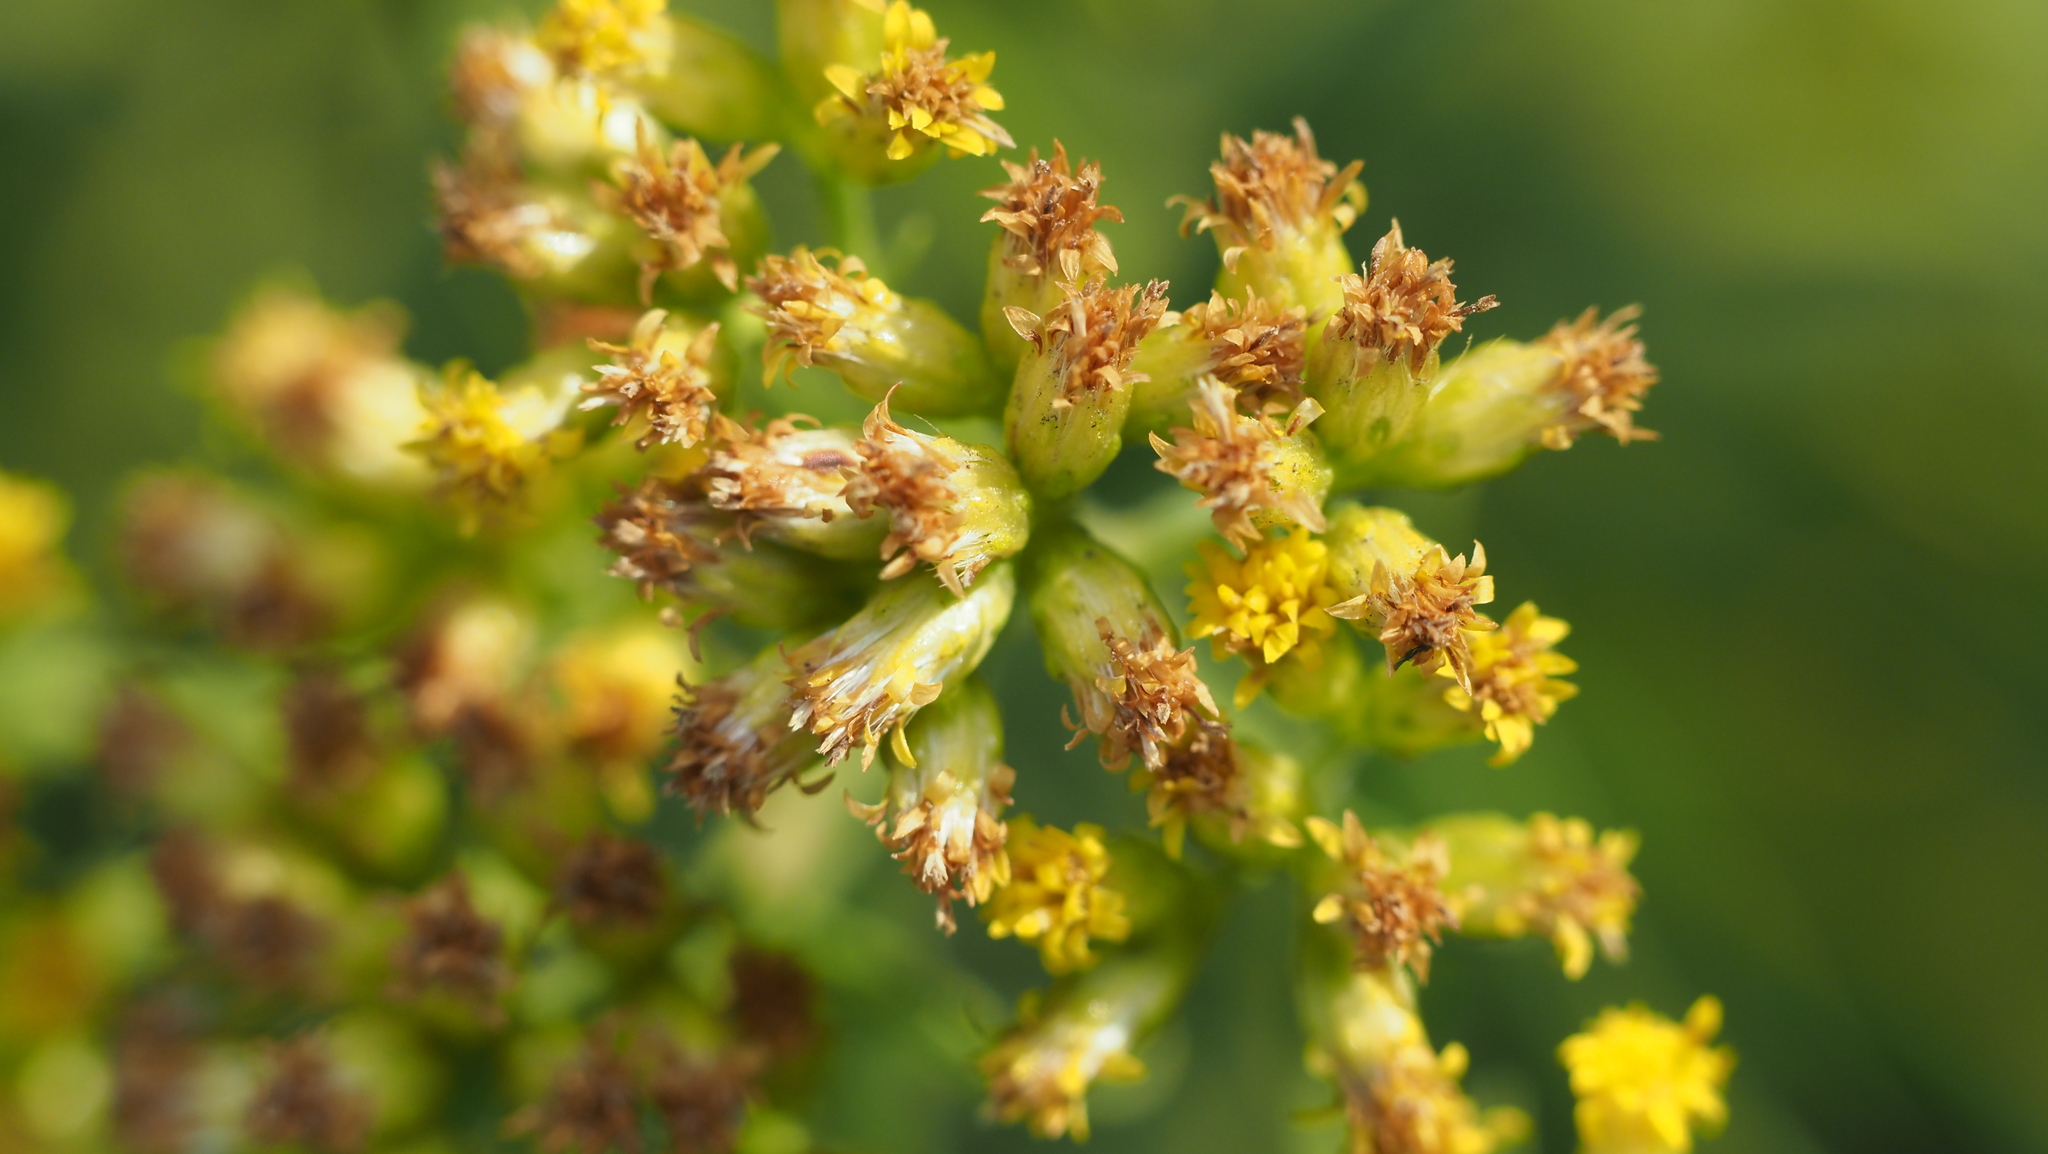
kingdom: Plantae
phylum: Tracheophyta
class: Magnoliopsida
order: Asterales
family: Asteraceae
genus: Euthamia
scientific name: Euthamia graminifolia
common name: Common goldentop
